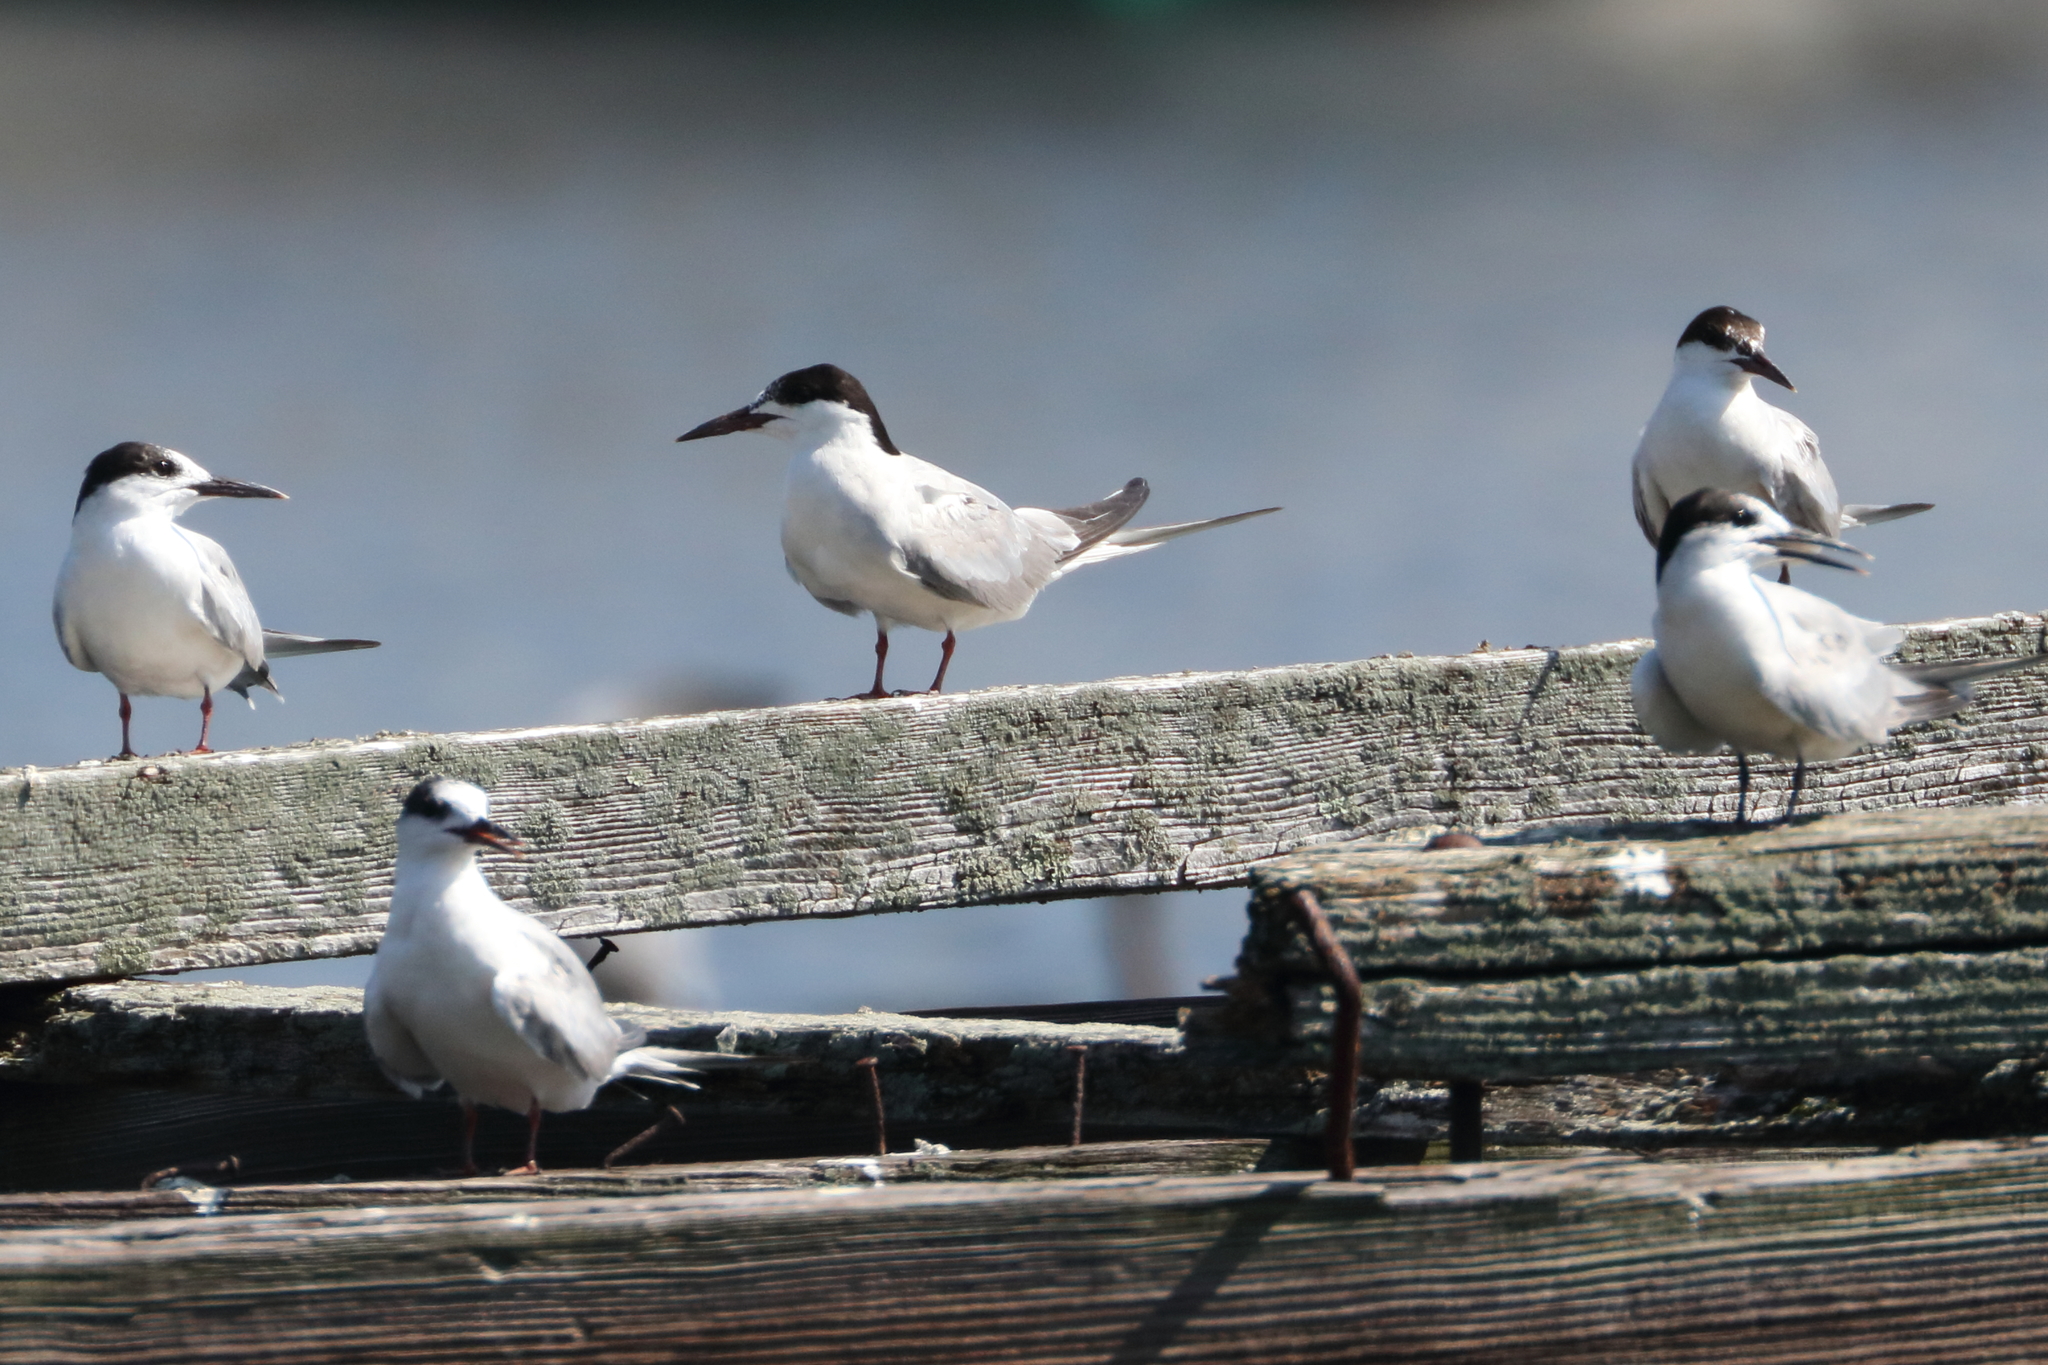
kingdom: Animalia
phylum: Chordata
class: Aves
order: Charadriiformes
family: Laridae
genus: Sterna
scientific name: Sterna hirundo
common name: Common tern
